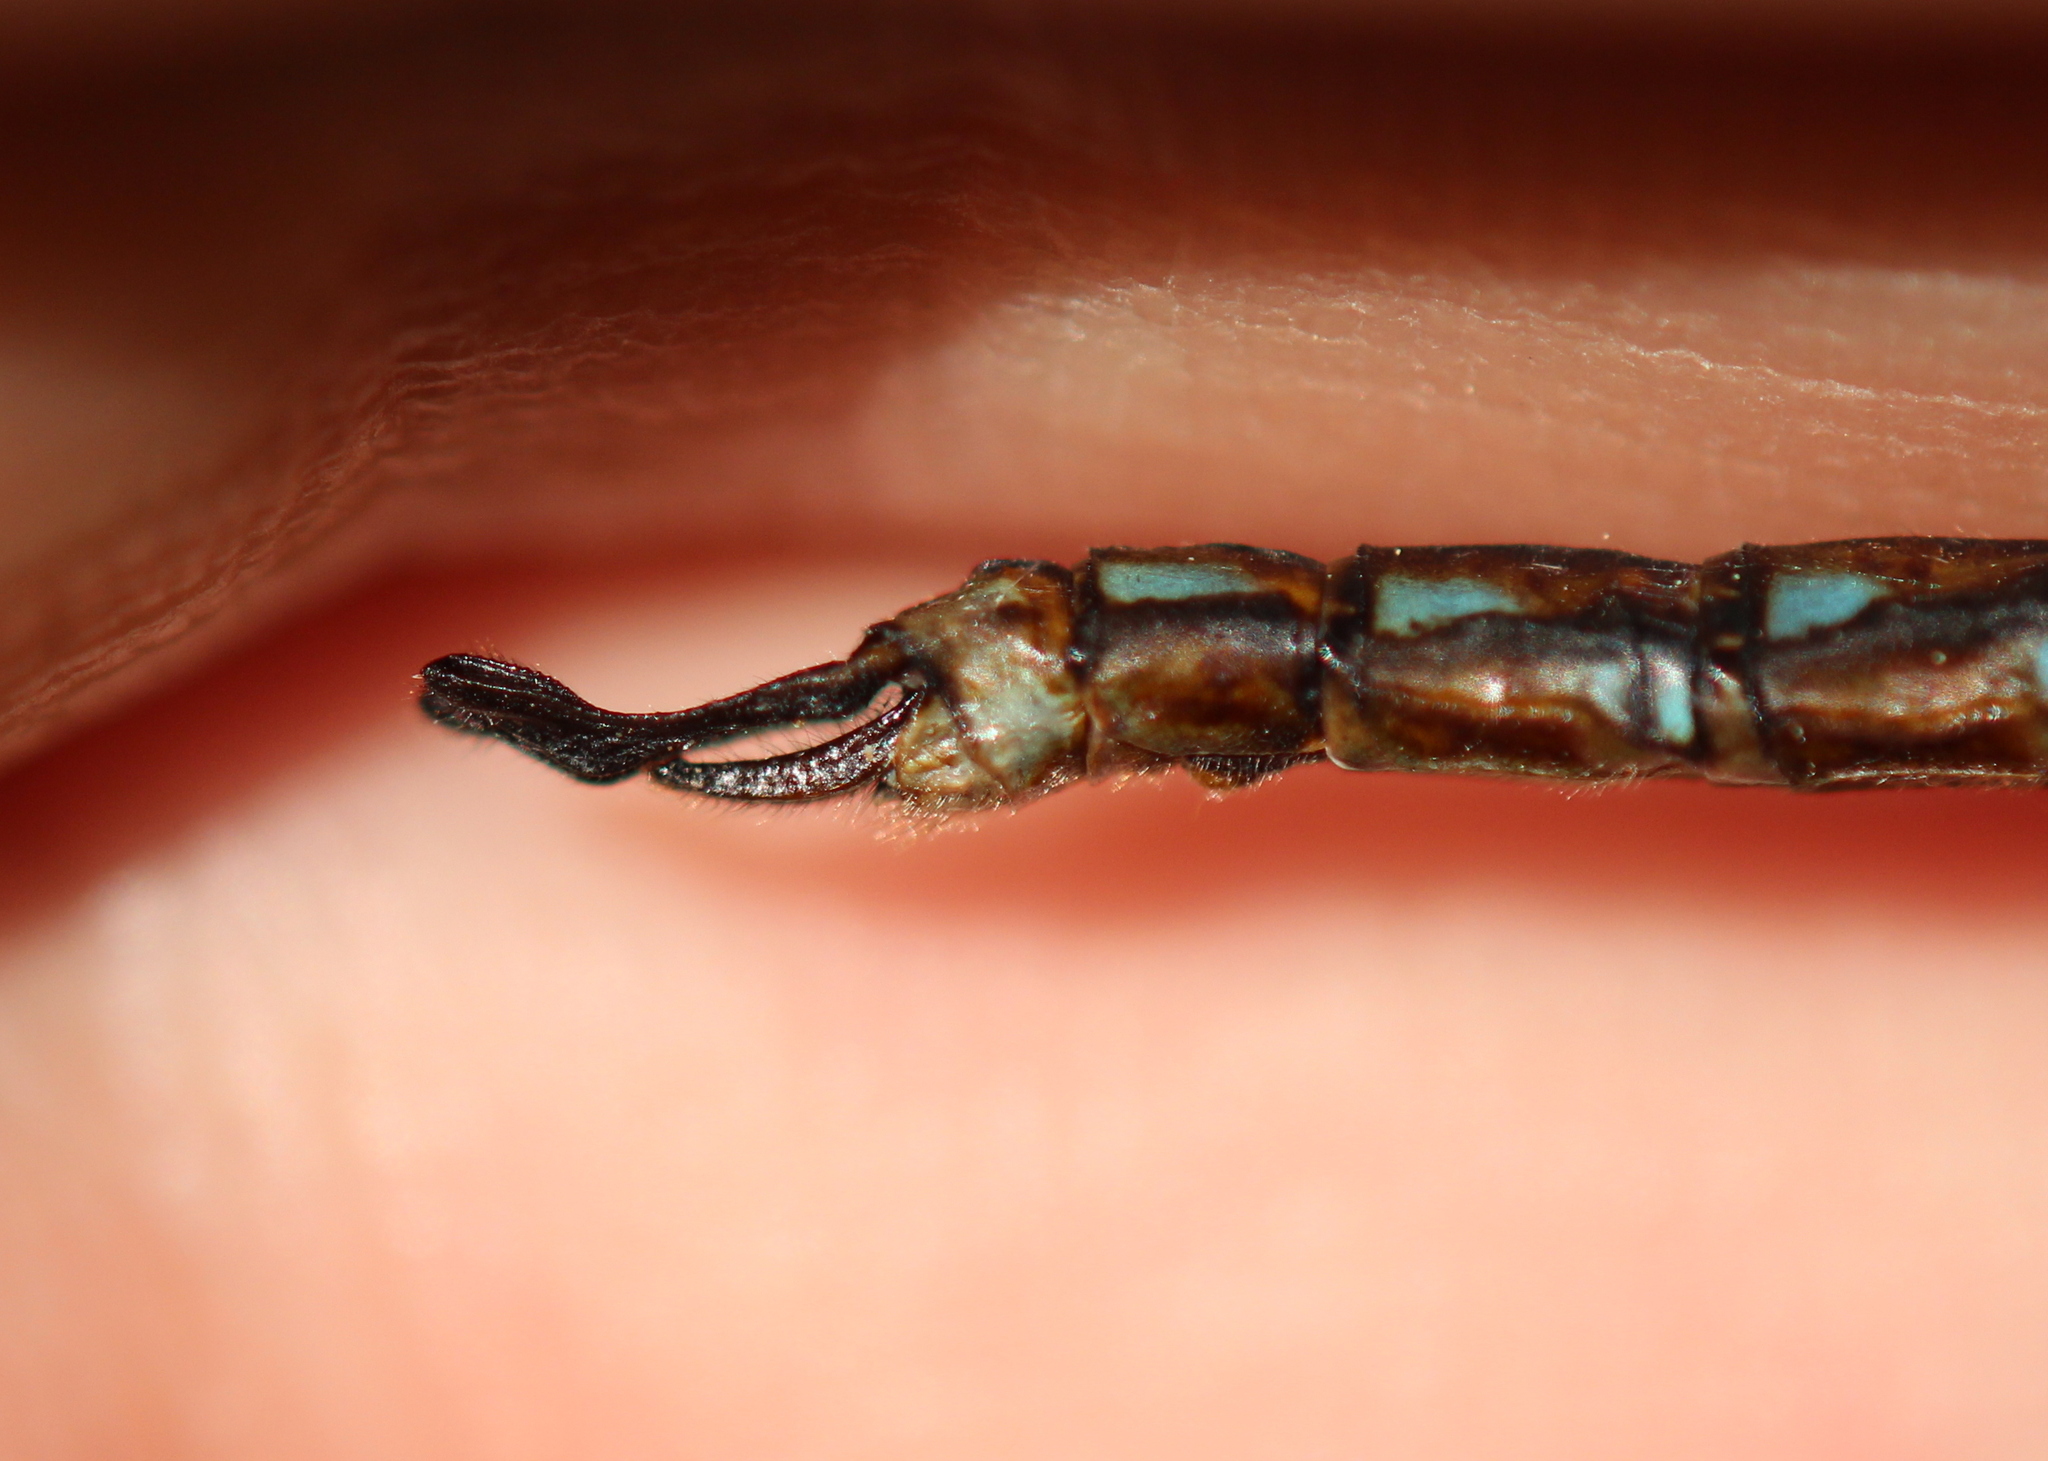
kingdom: Animalia
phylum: Arthropoda
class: Insecta
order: Odonata
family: Aeshnidae
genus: Basiaeschna
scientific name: Basiaeschna janata
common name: Springtime darner
